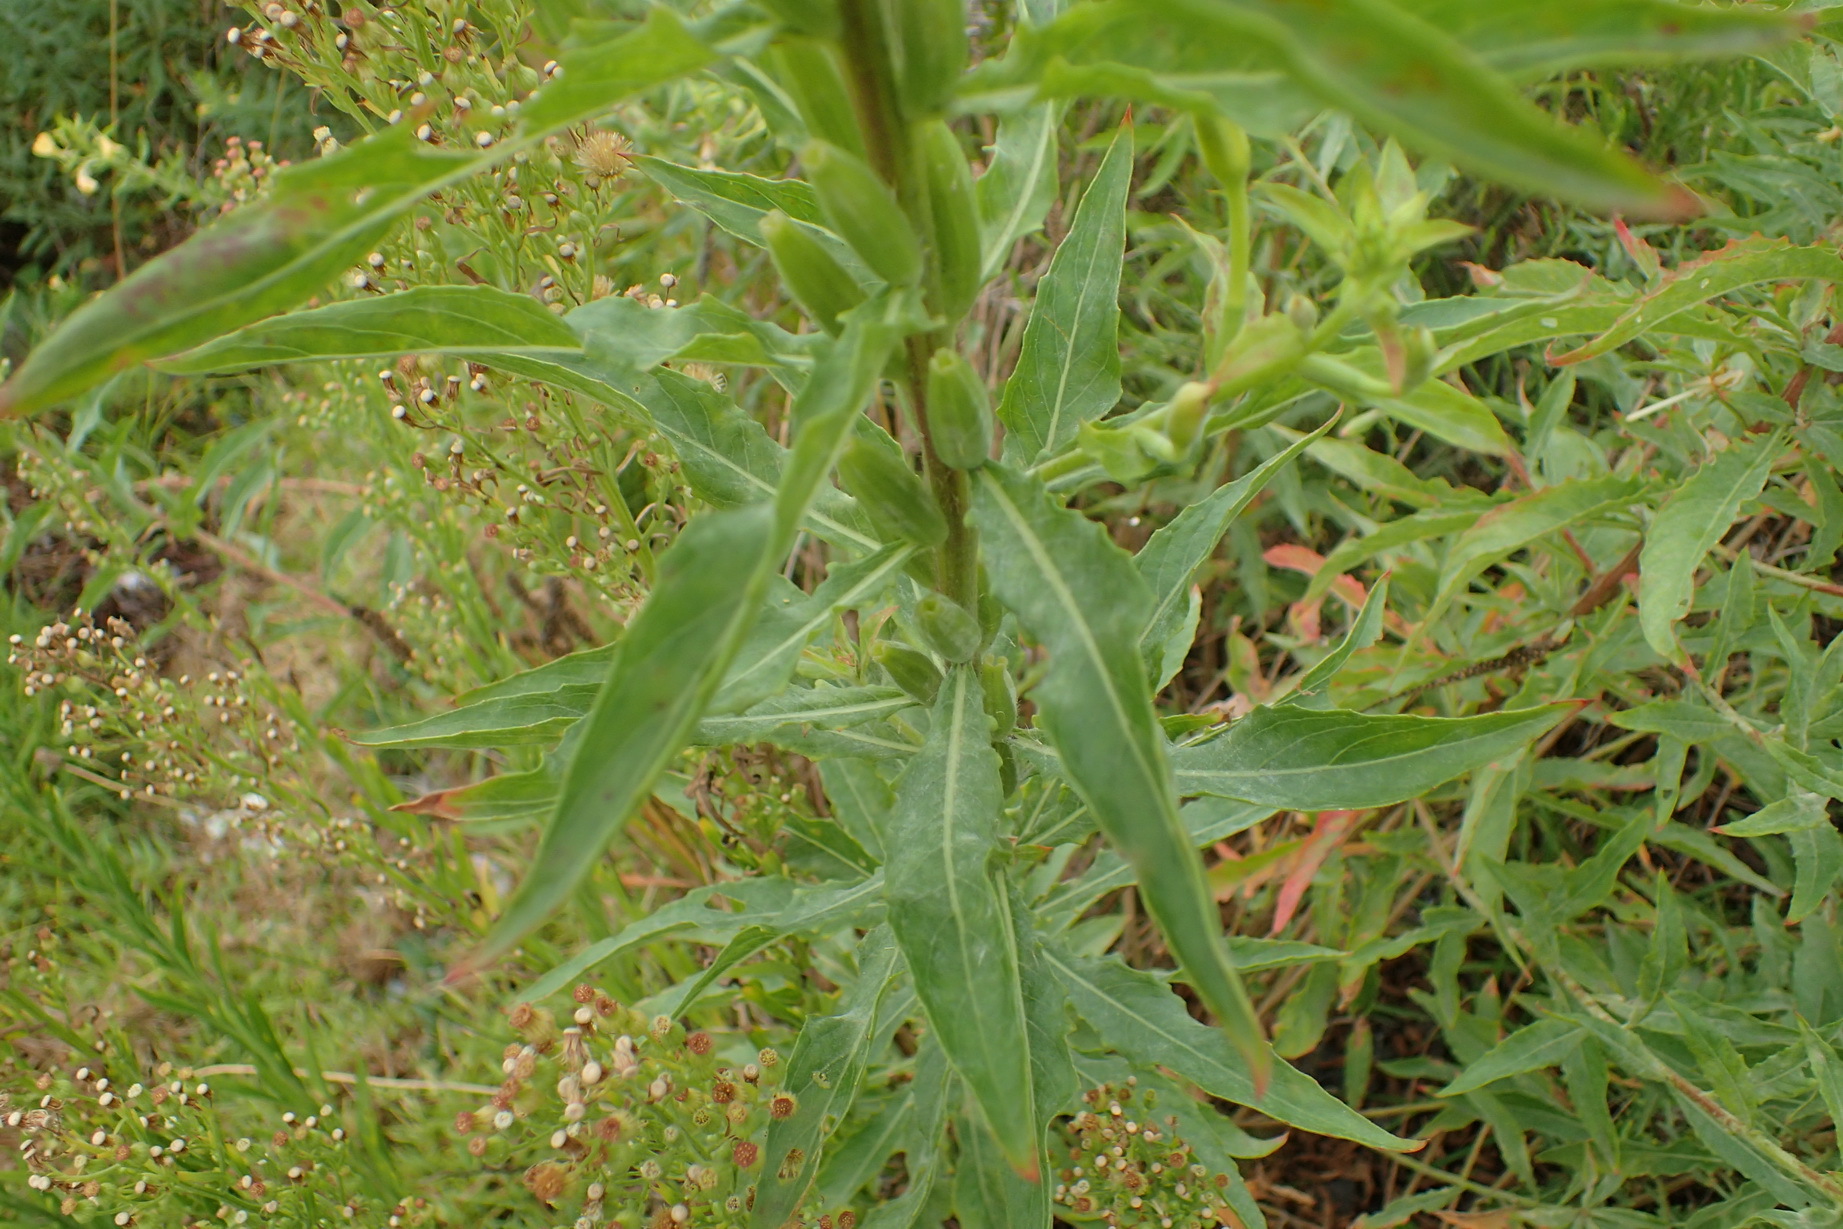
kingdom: Plantae
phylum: Tracheophyta
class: Magnoliopsida
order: Myrtales
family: Onagraceae
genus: Oenothera
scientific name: Oenothera biennis
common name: Common evening-primrose
